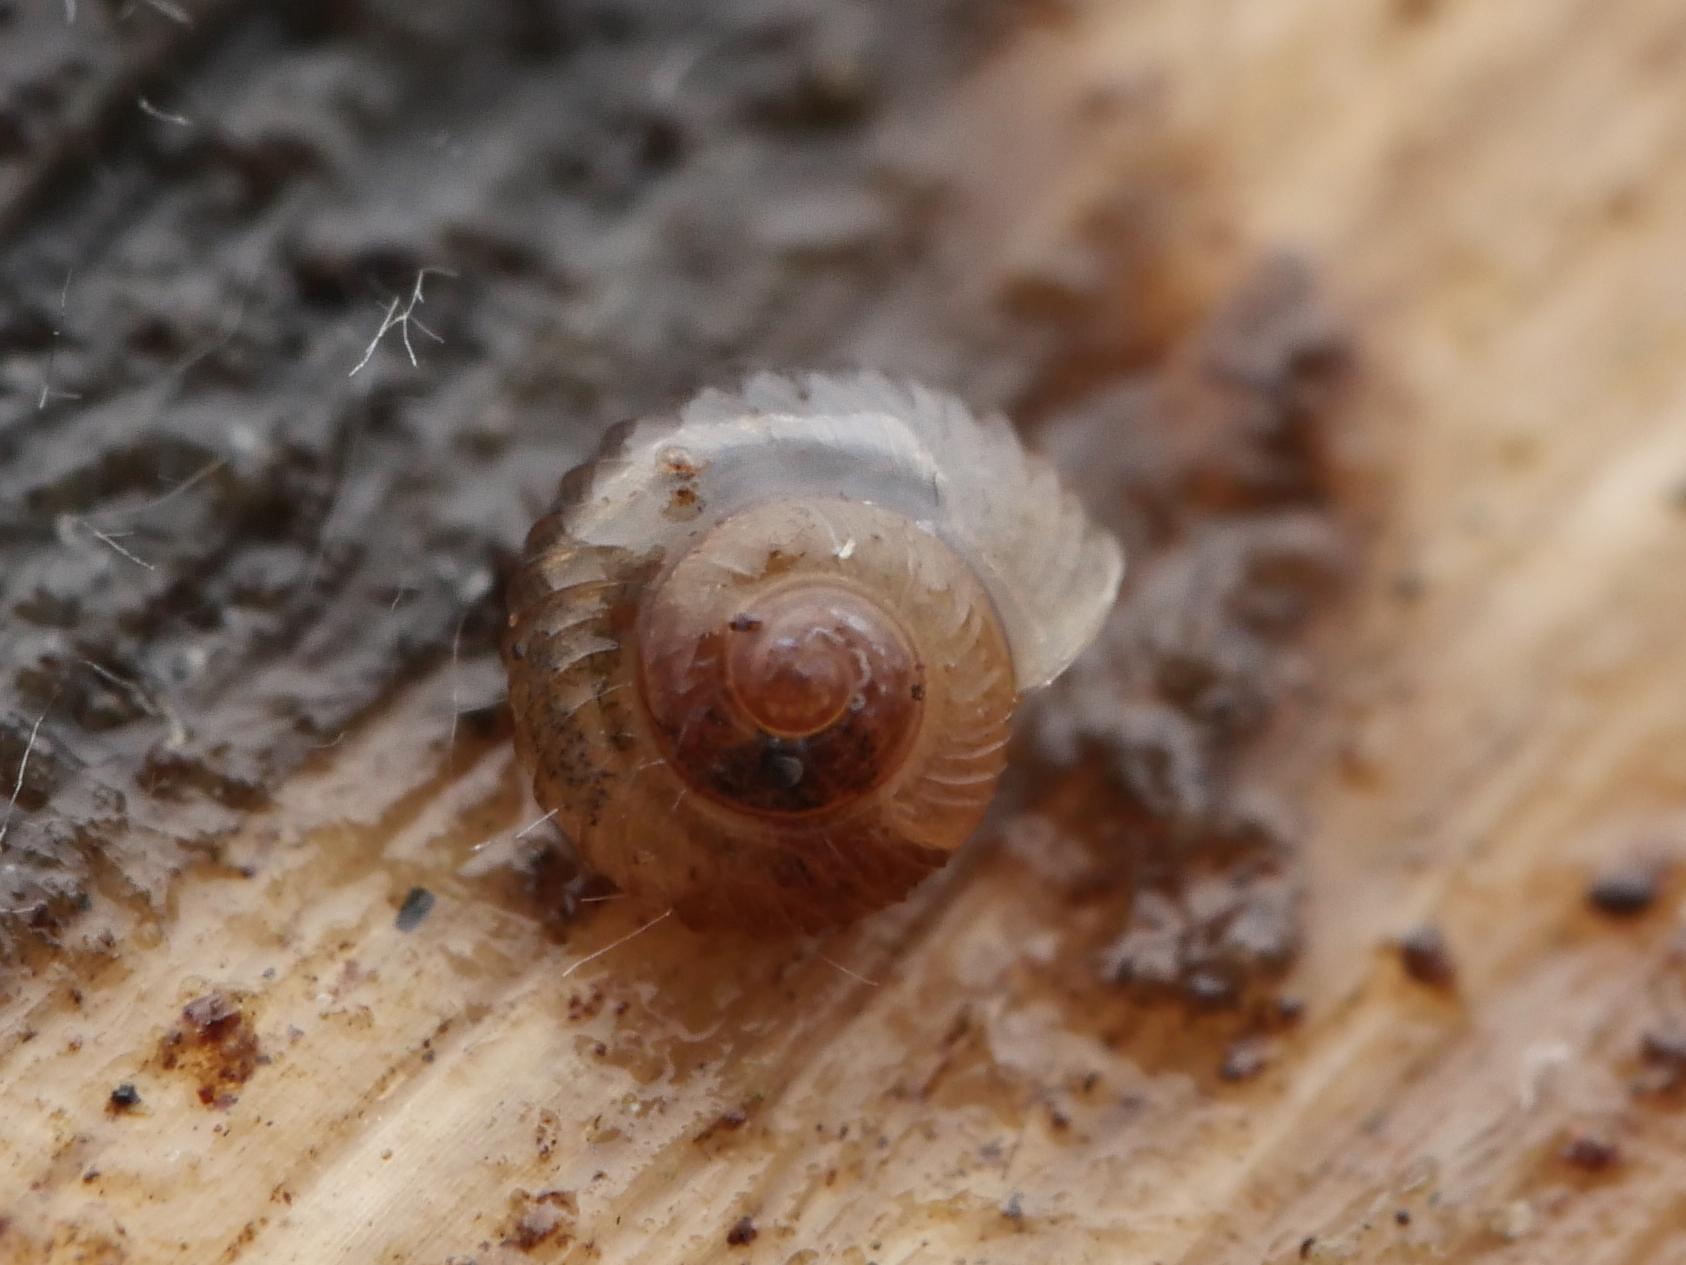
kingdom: Animalia
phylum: Mollusca
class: Gastropoda
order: Stylommatophora
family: Valloniidae
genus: Vallonia
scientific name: Vallonia costata
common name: Ribbed grass snail
